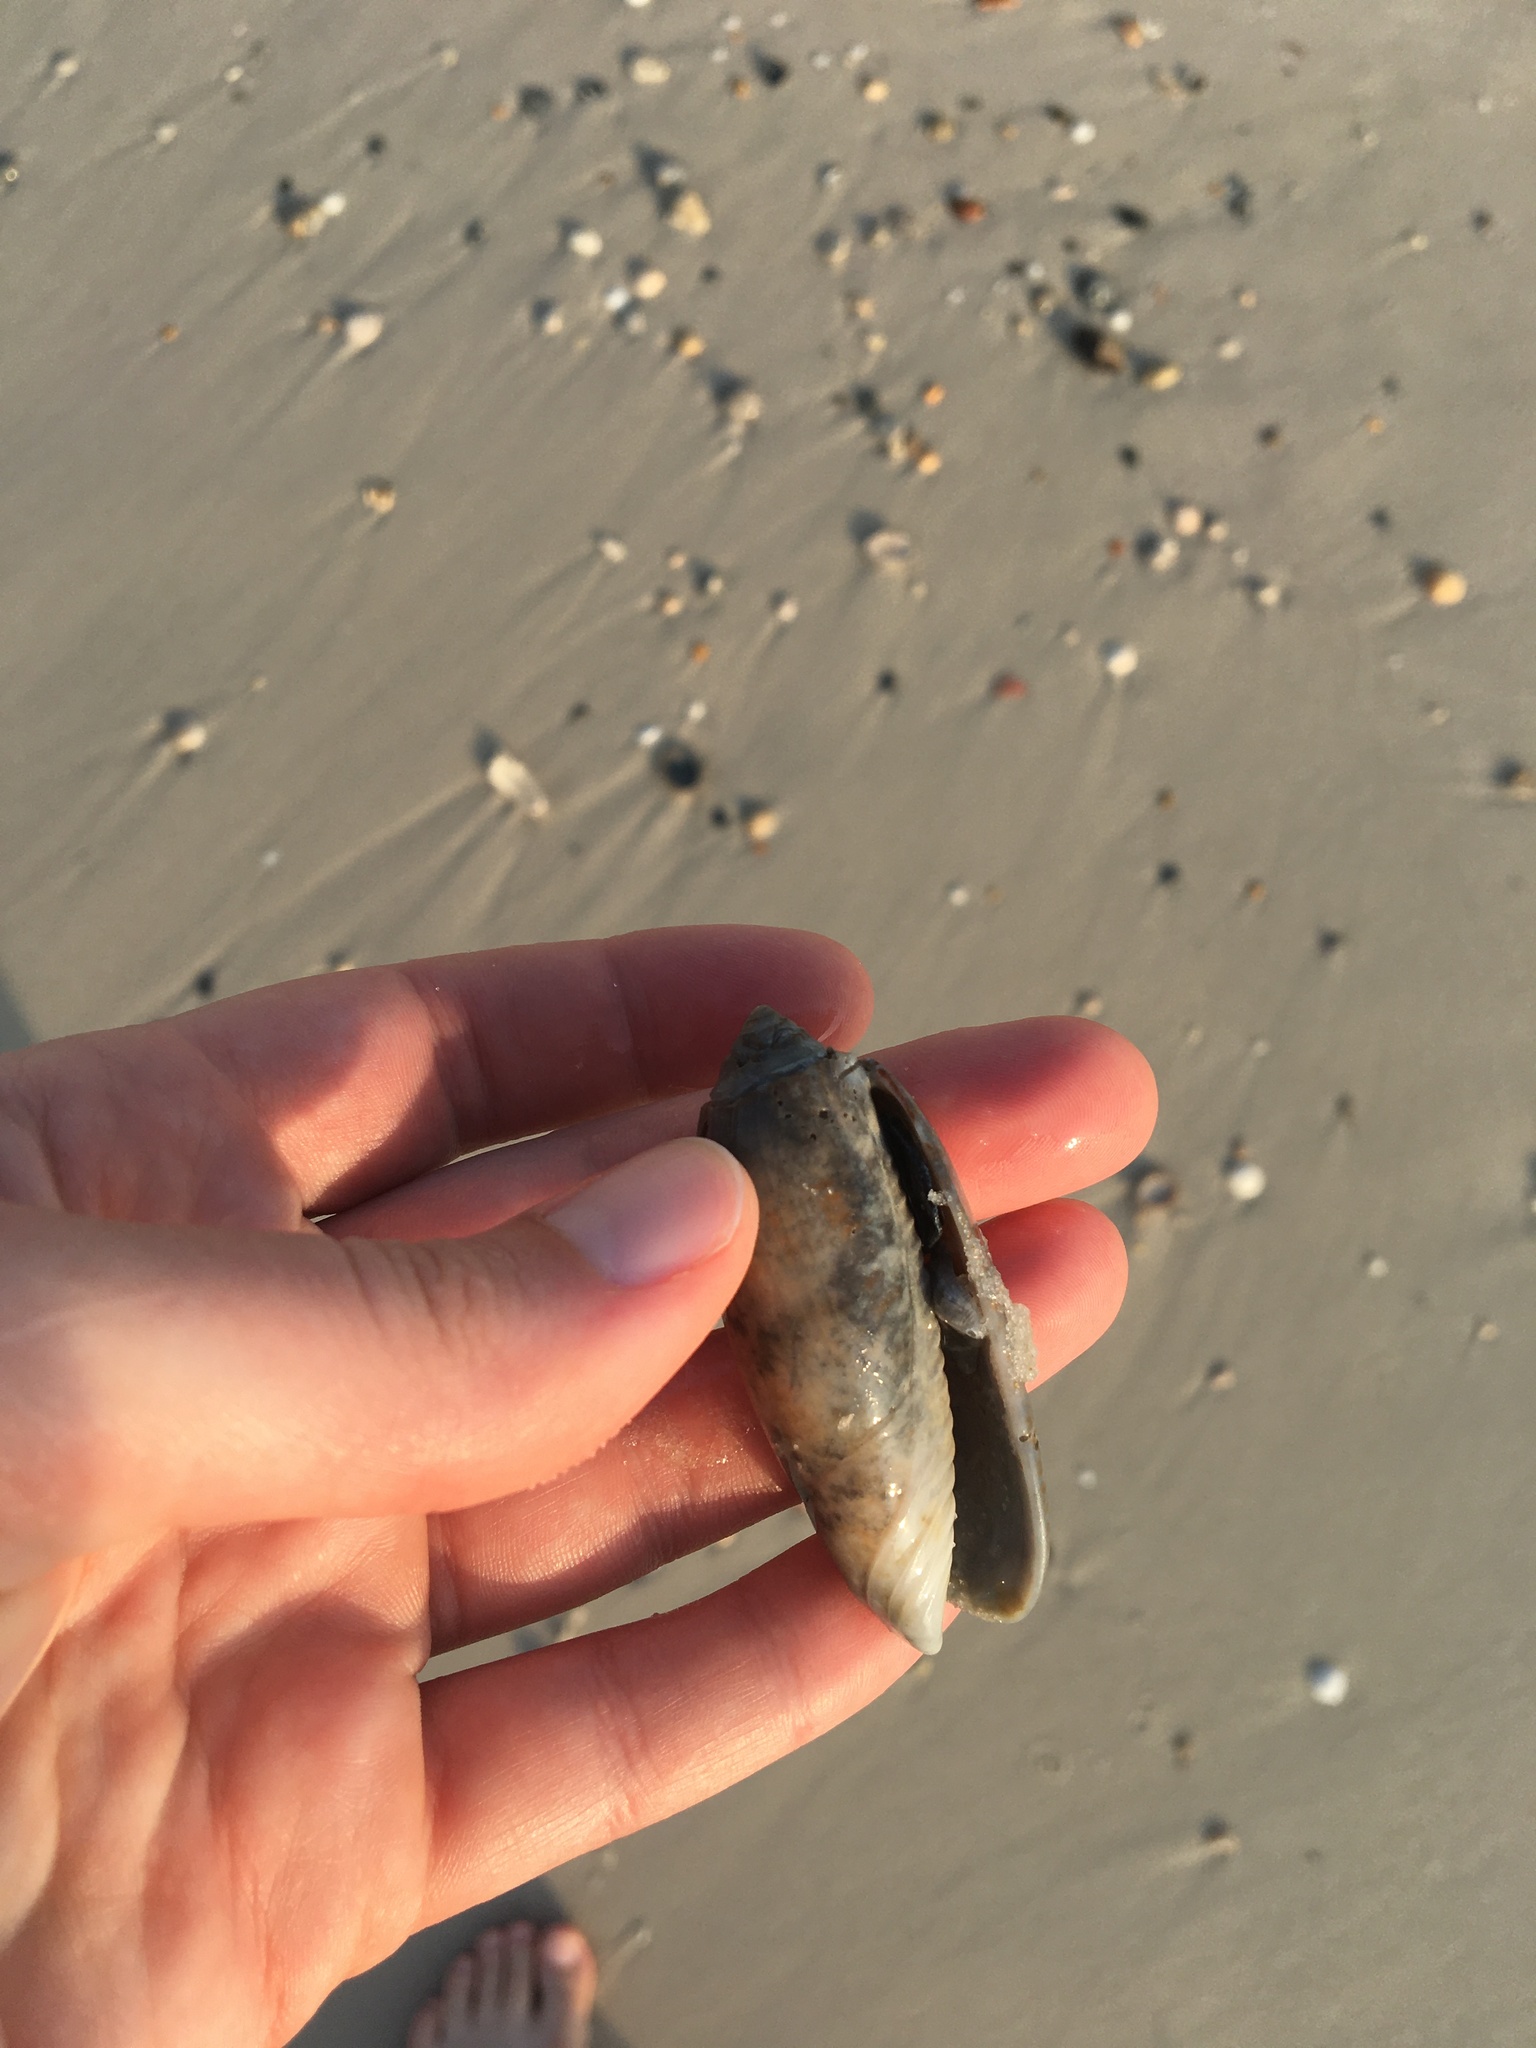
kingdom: Animalia
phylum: Mollusca
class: Gastropoda
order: Neogastropoda
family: Olividae
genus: Oliva
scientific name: Oliva sayana
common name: Lettered olive
